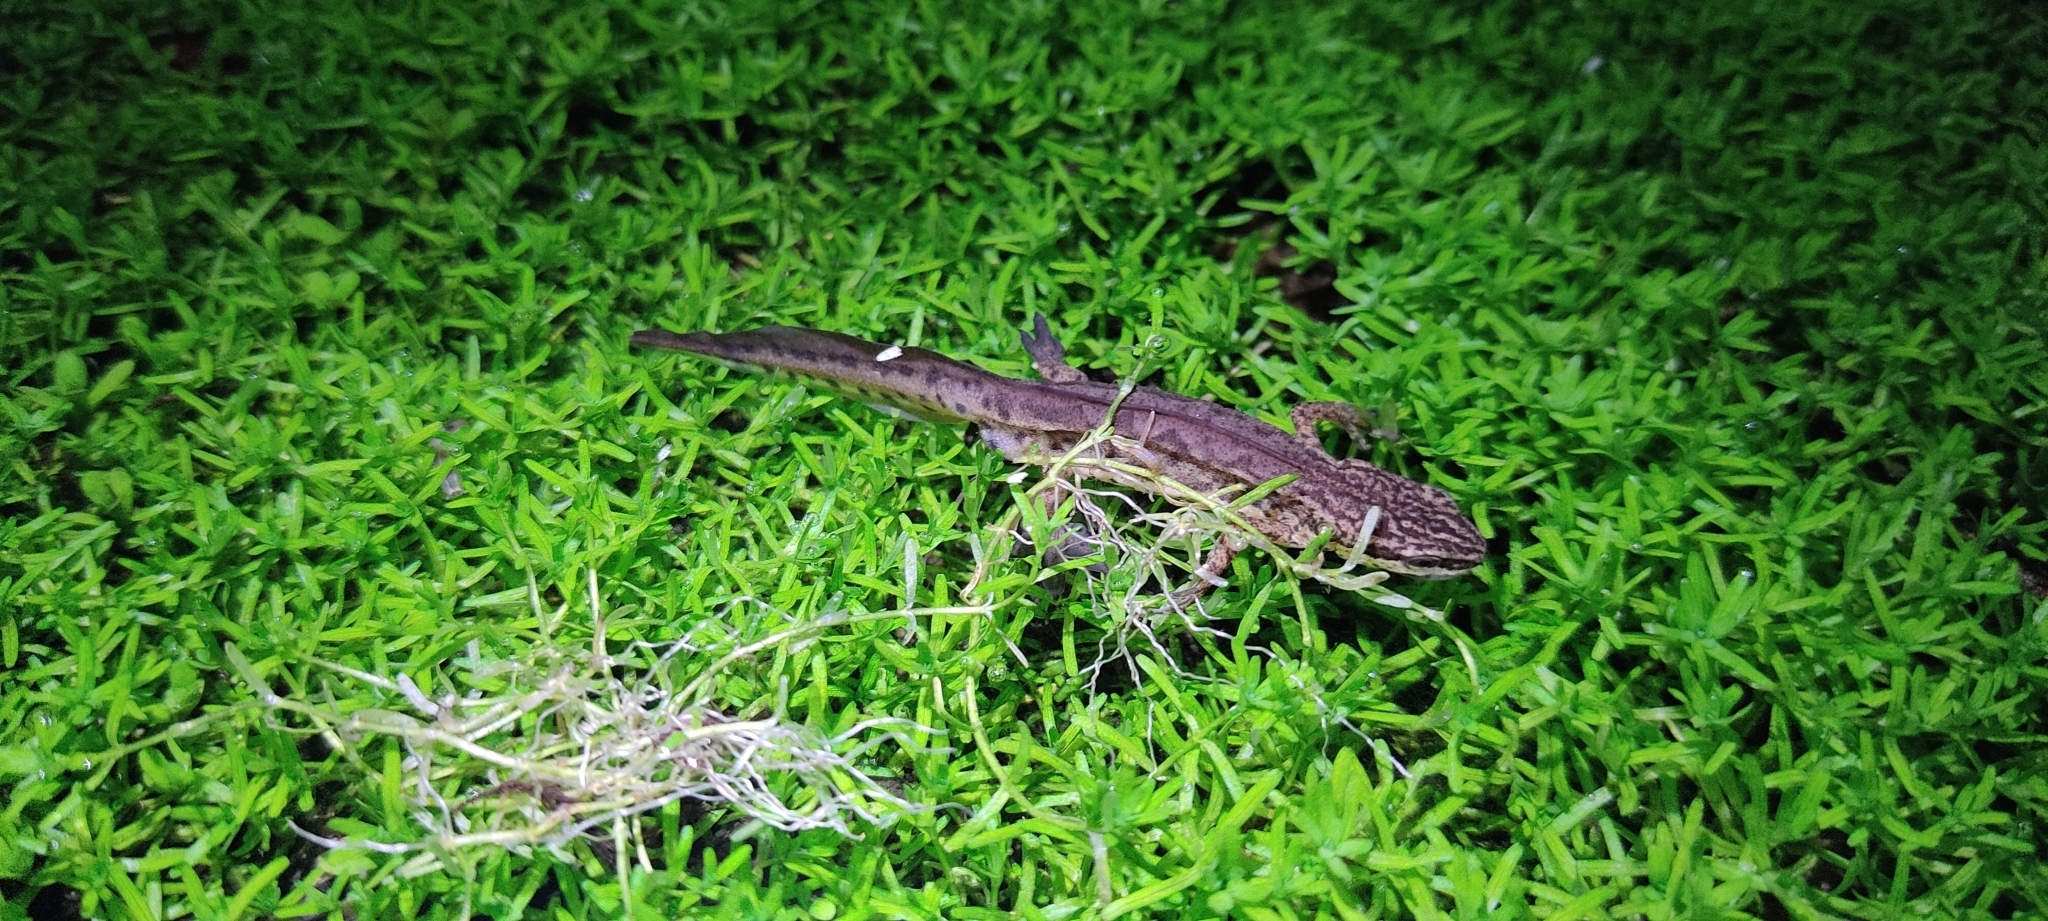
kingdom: Animalia
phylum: Chordata
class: Amphibia
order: Caudata
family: Salamandridae
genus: Lissotriton
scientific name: Lissotriton helveticus
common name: Palmate newt
